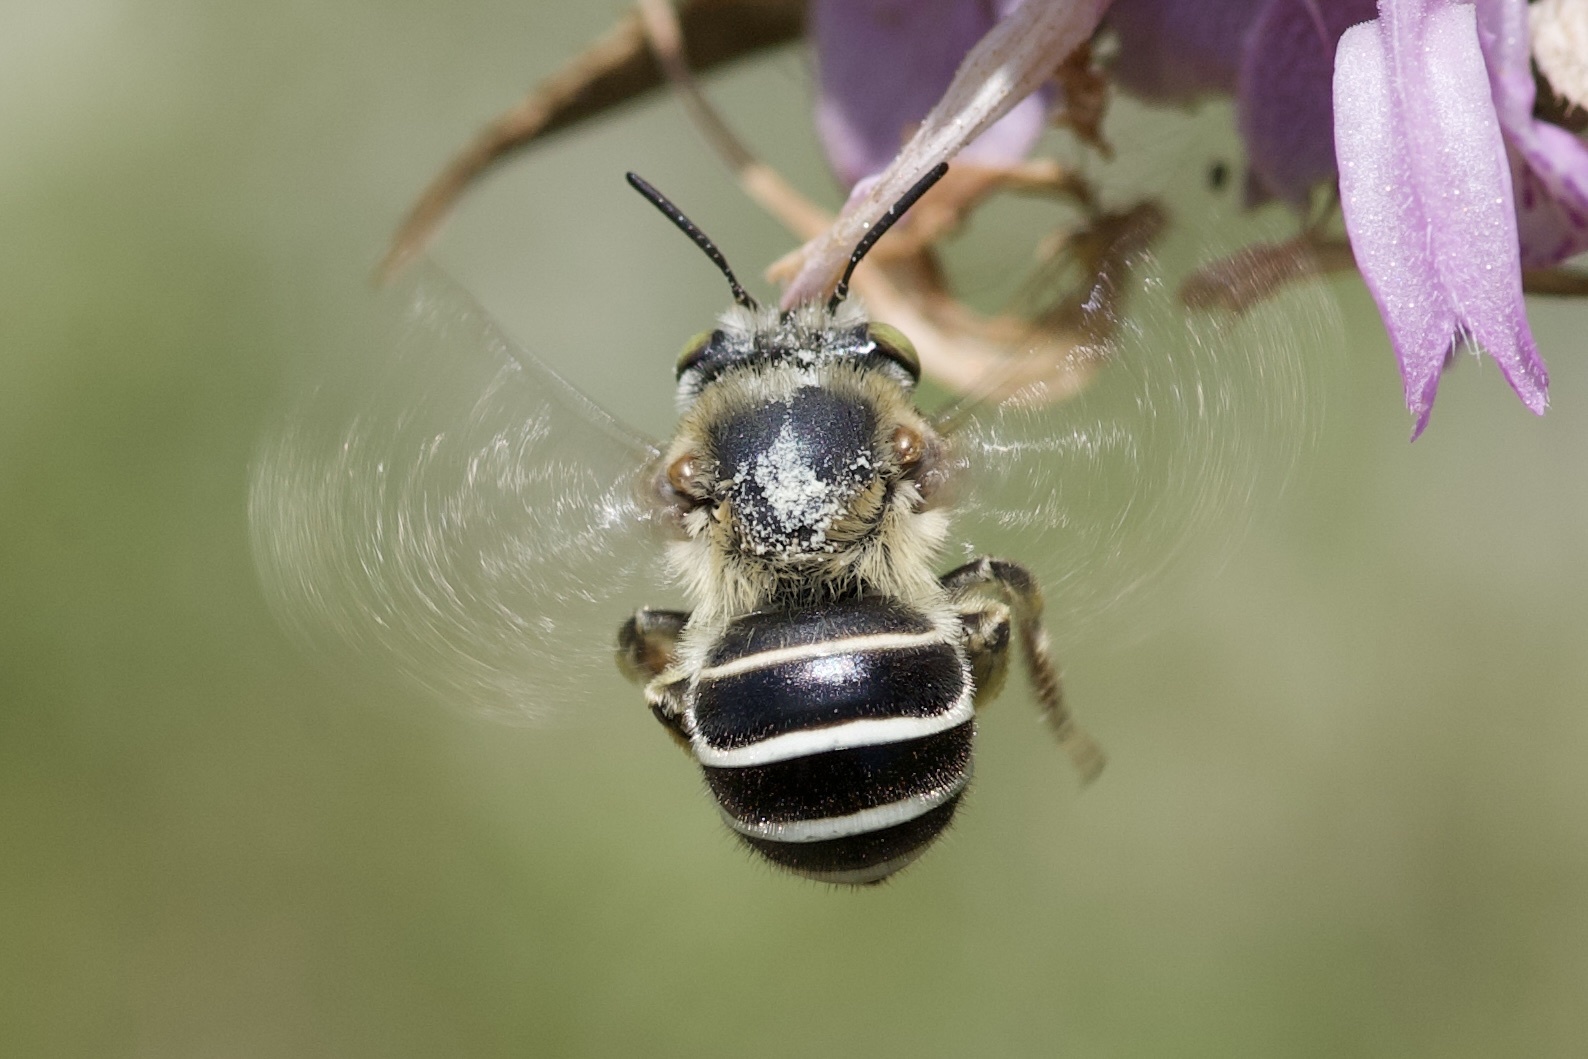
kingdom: Animalia
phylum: Arthropoda
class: Insecta
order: Hymenoptera
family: Apidae
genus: Anthophora
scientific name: Anthophora californica
